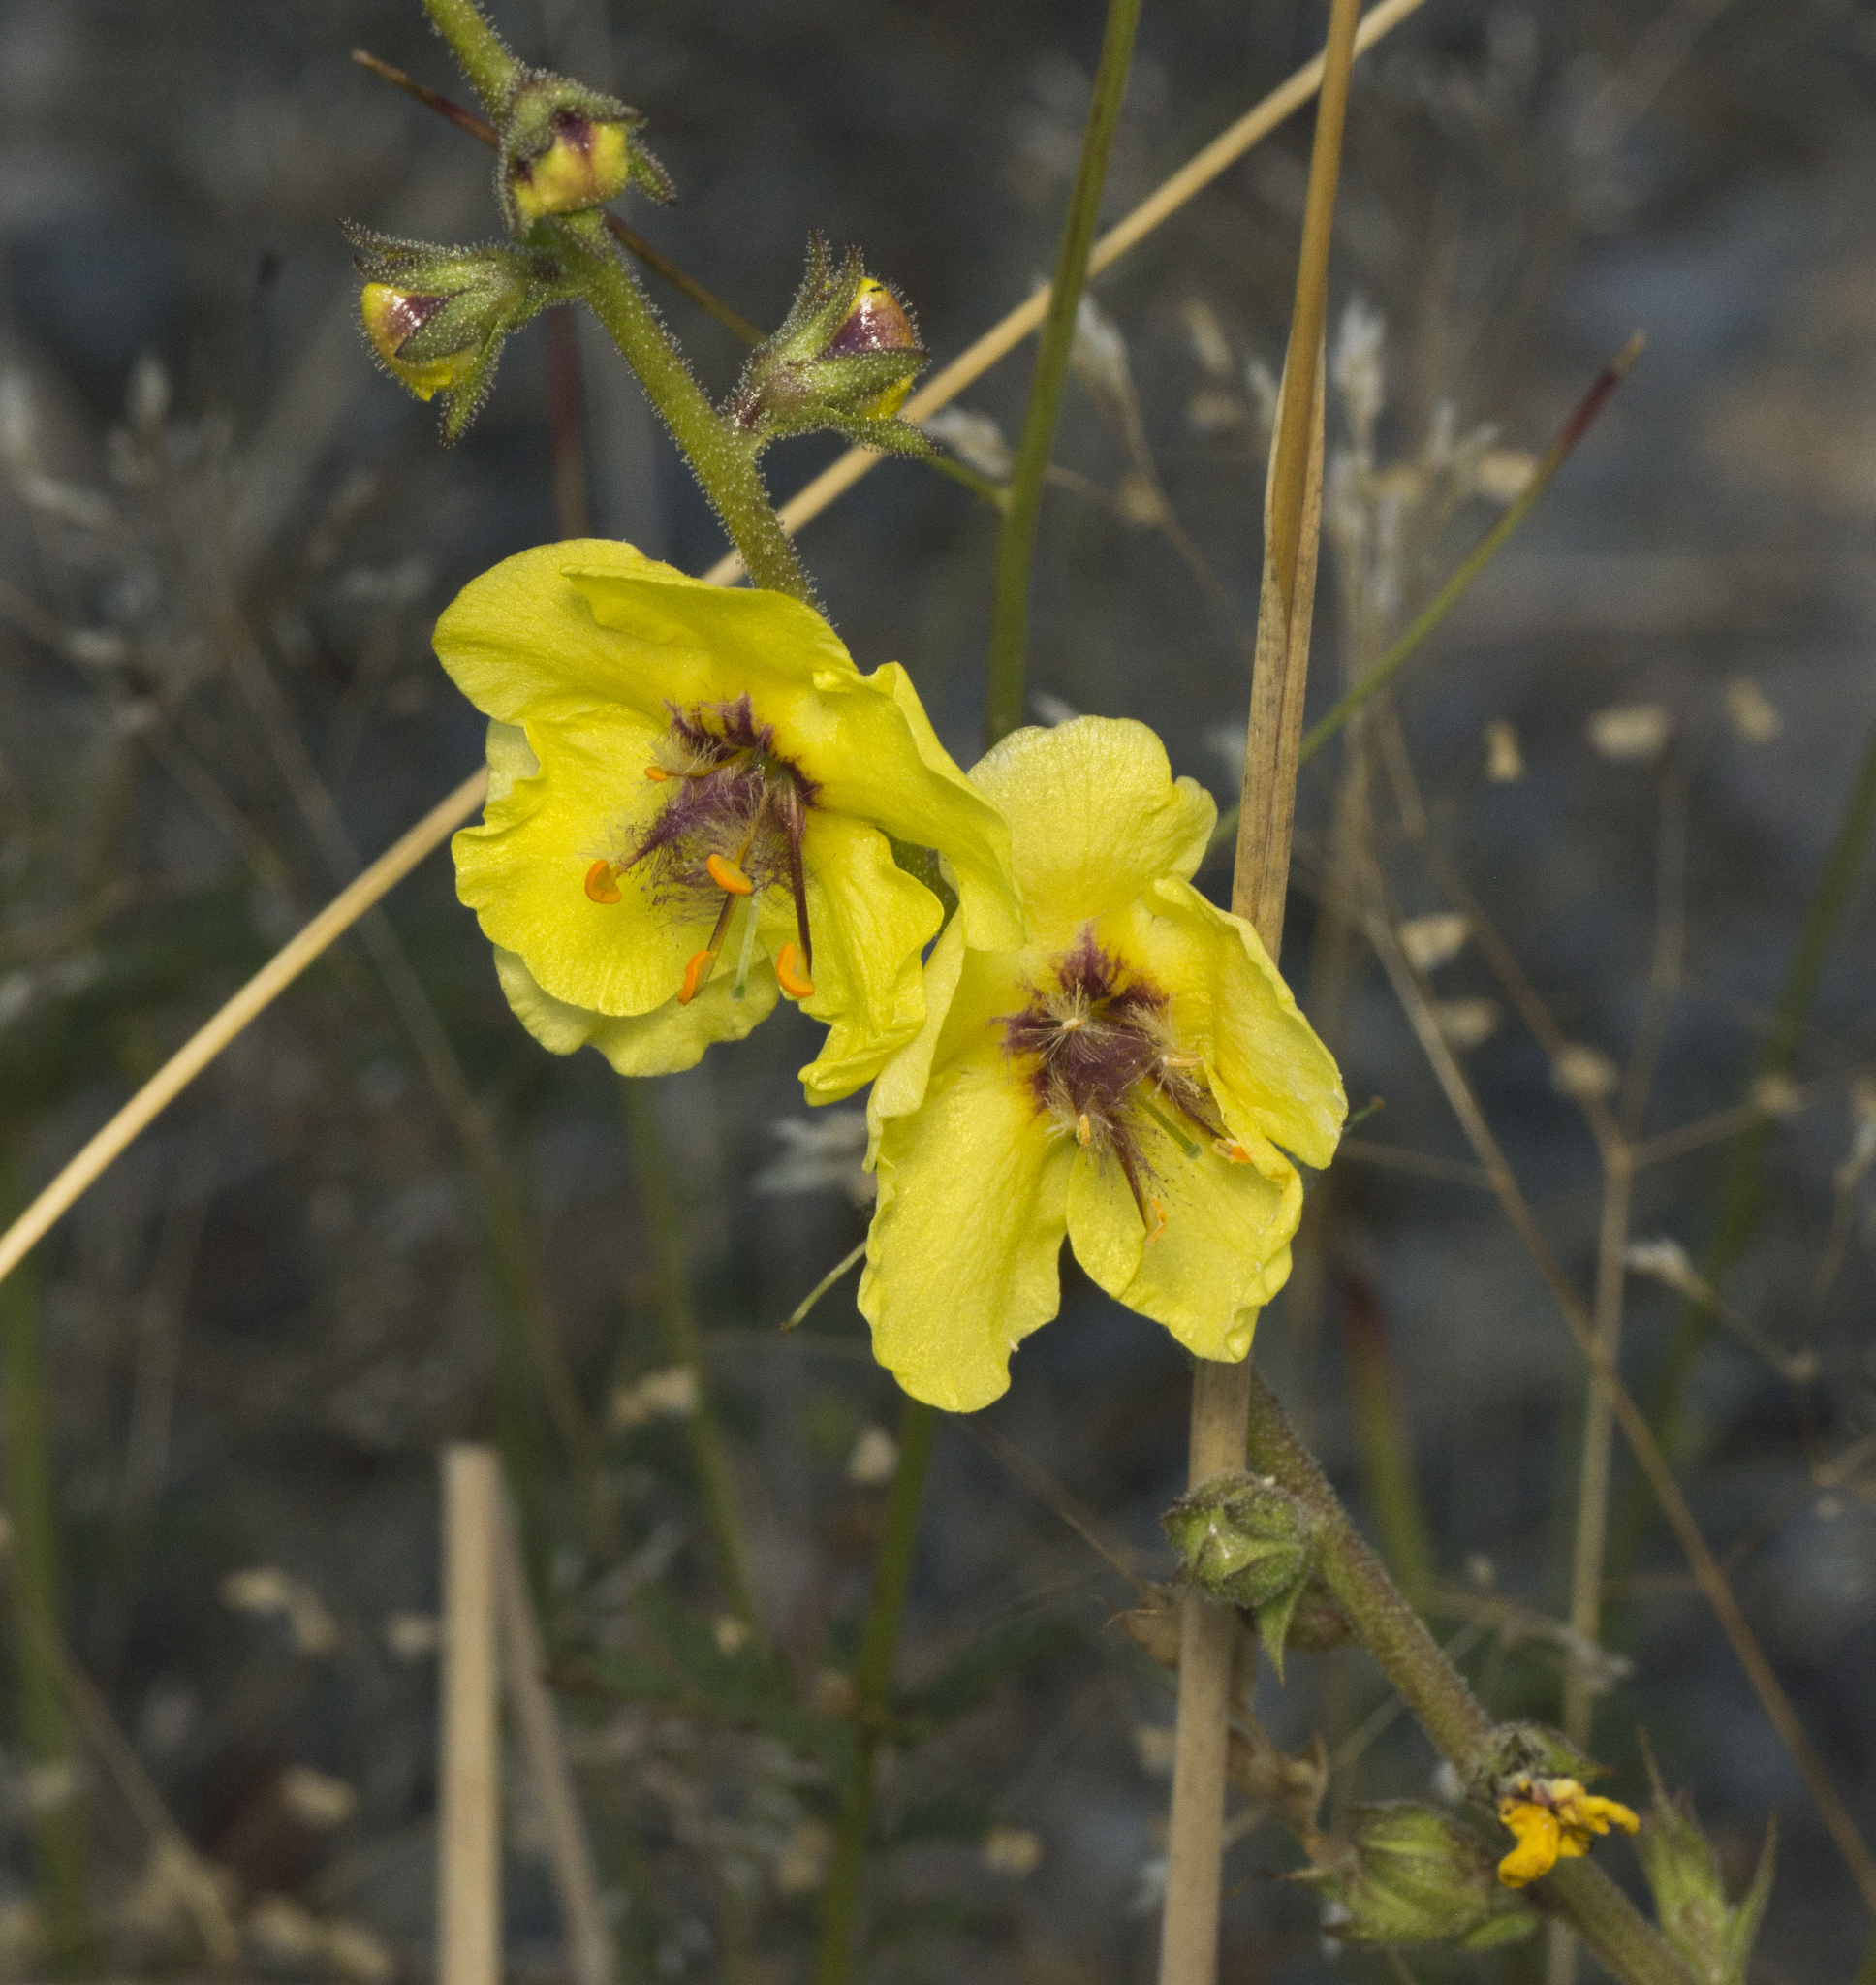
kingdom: Plantae
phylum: Tracheophyta
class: Magnoliopsida
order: Lamiales
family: Scrophulariaceae
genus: Verbascum
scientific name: Verbascum virgatum
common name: Twiggy mullein
